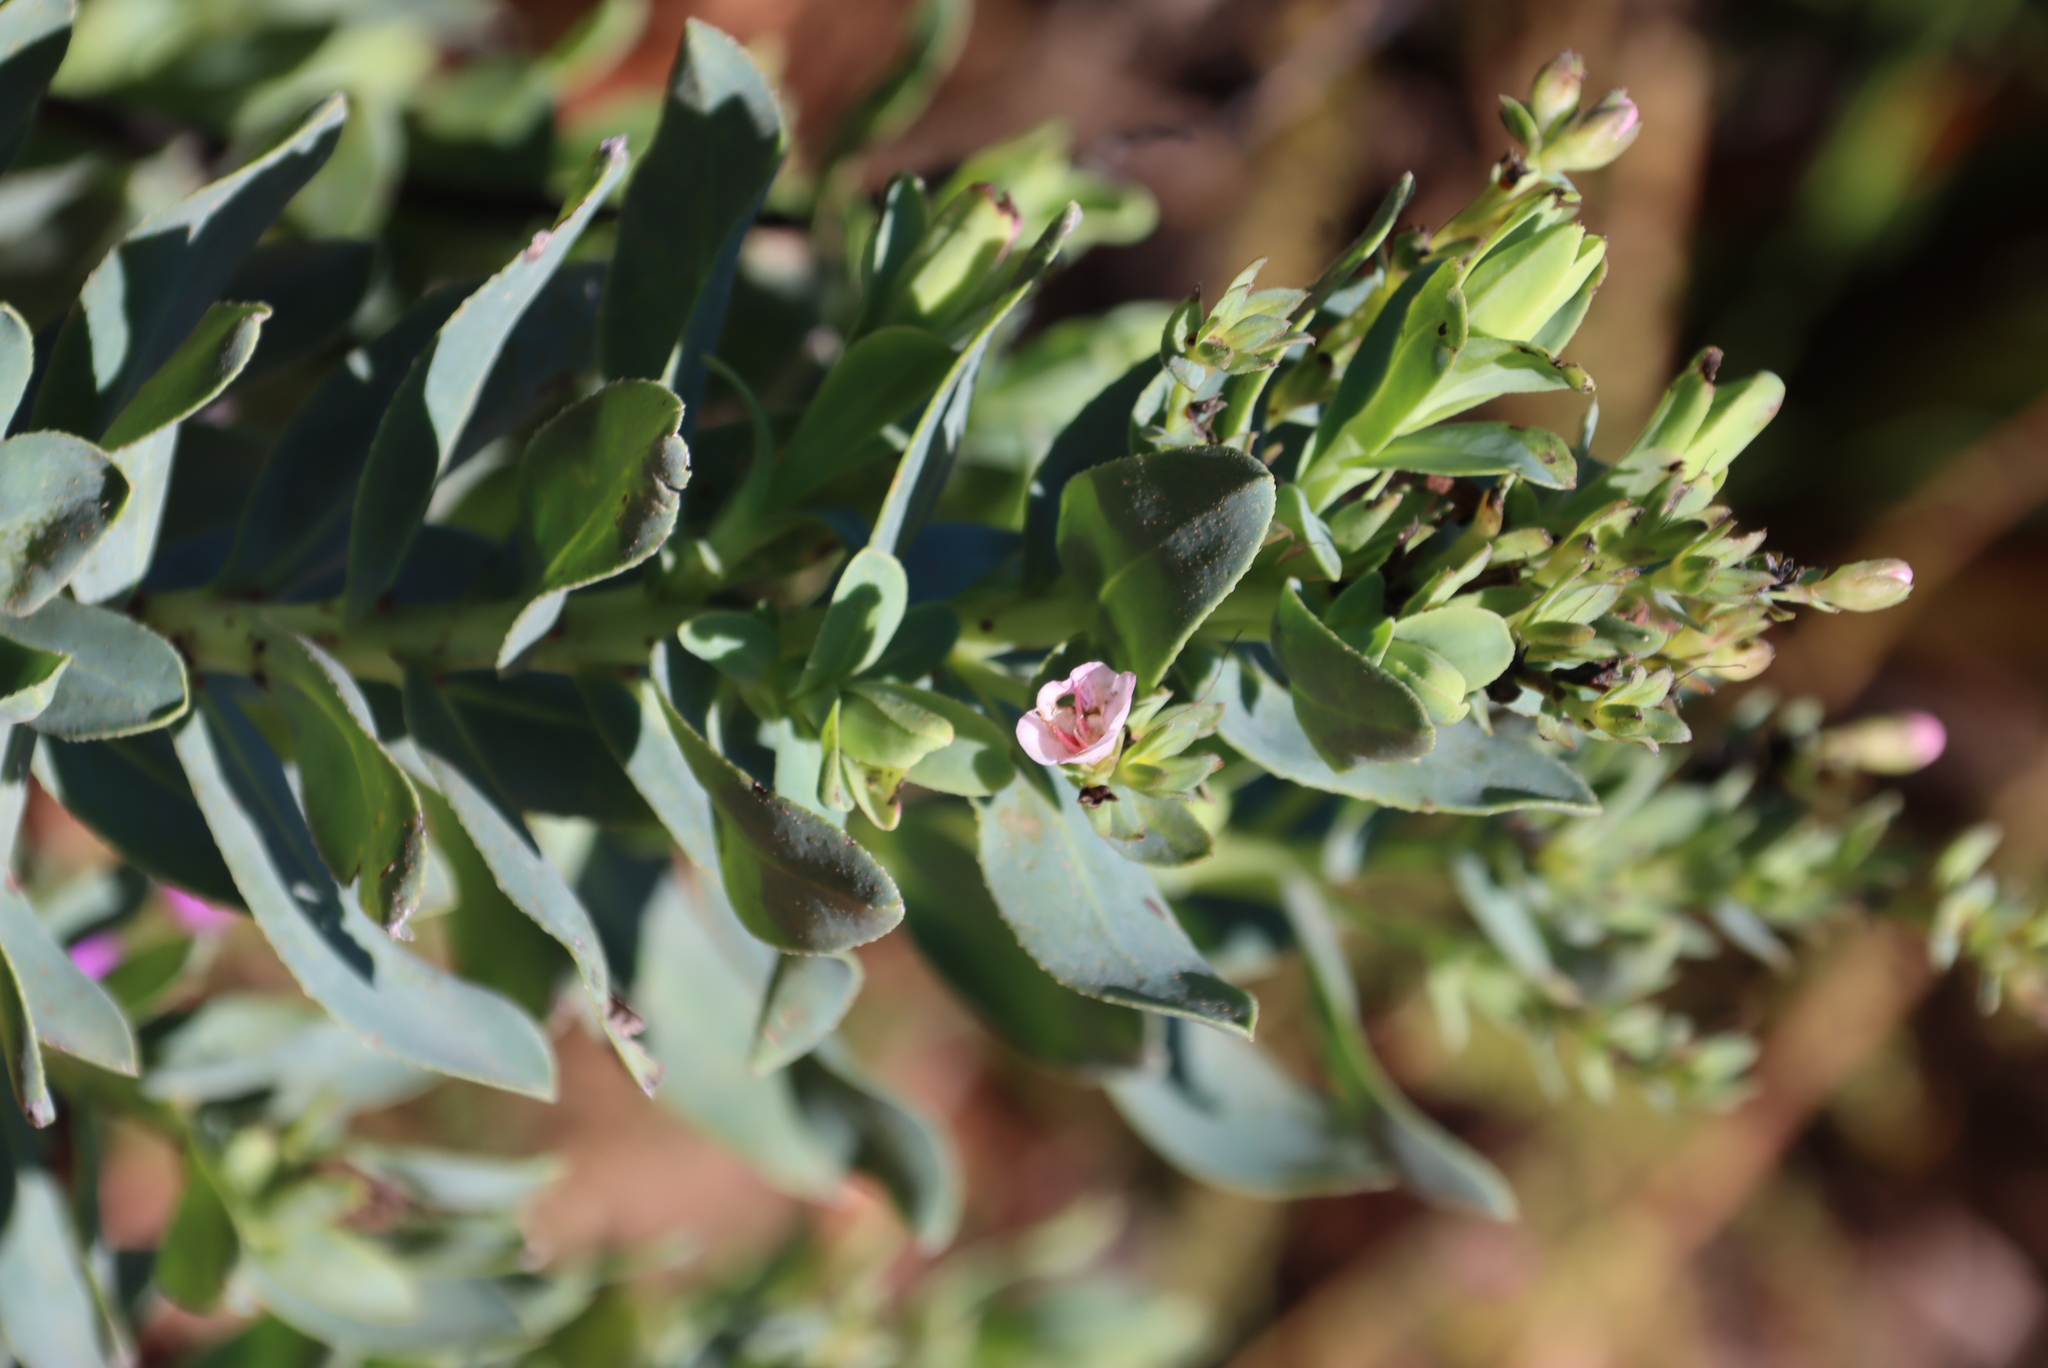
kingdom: Plantae
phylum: Tracheophyta
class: Magnoliopsida
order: Boraginales
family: Boraginaceae
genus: Lobostemon
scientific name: Lobostemon glaucophyllus
